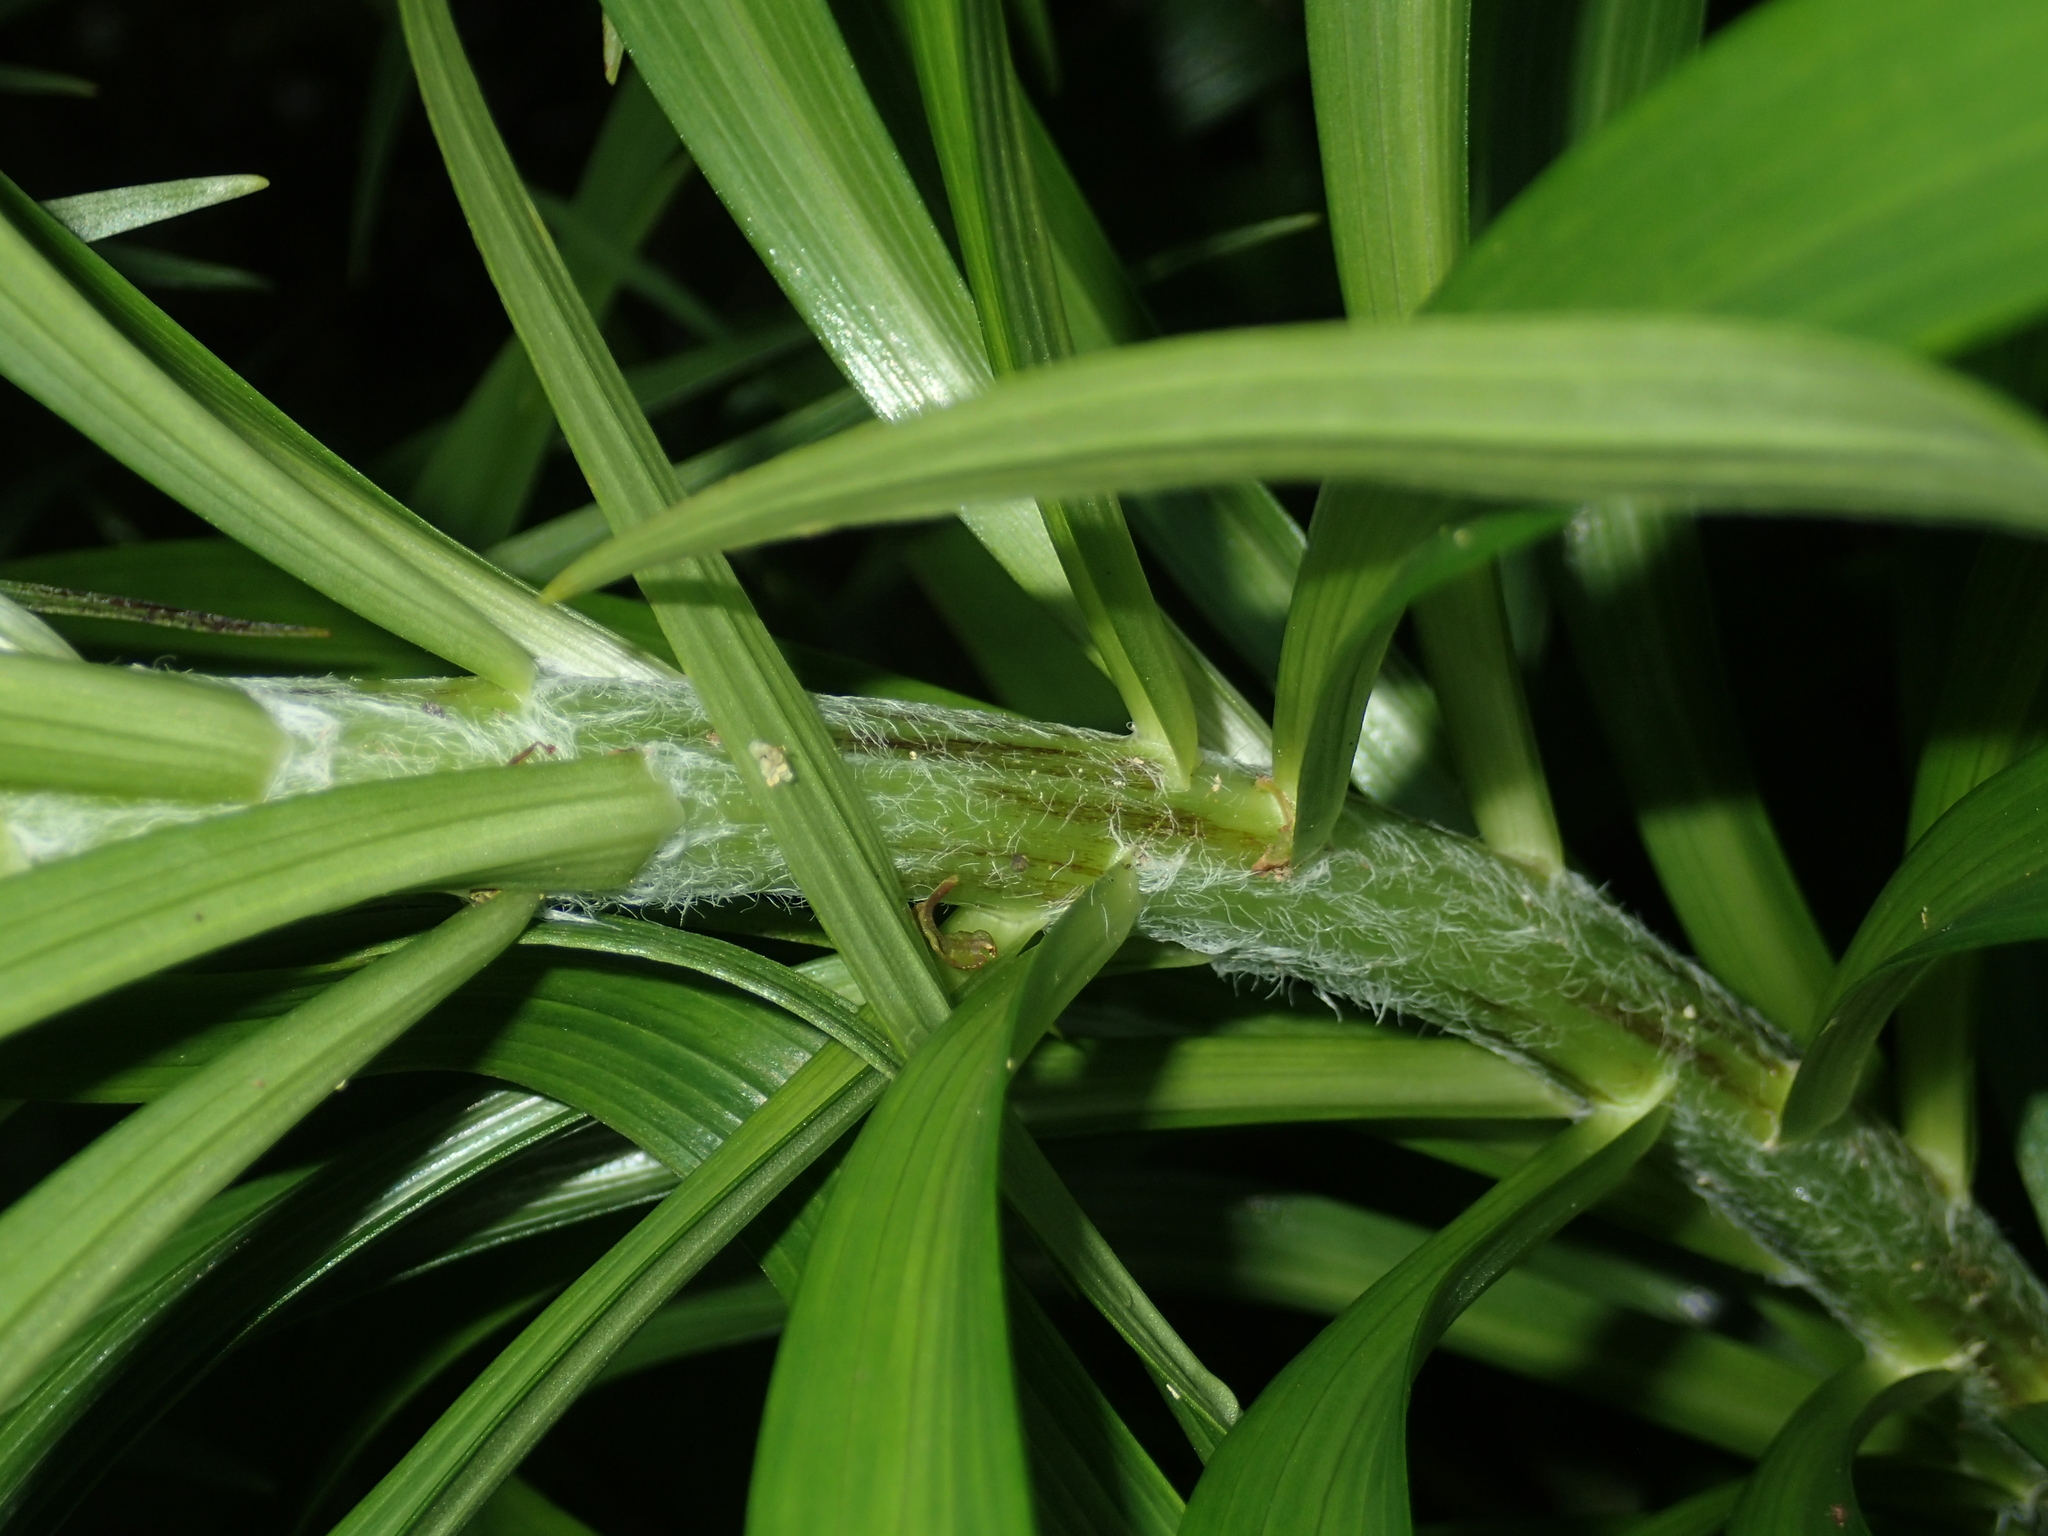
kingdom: Plantae
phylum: Tracheophyta
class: Liliopsida
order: Liliales
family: Liliaceae
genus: Lilium
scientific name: Lilium formosanum
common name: Formosa lily
